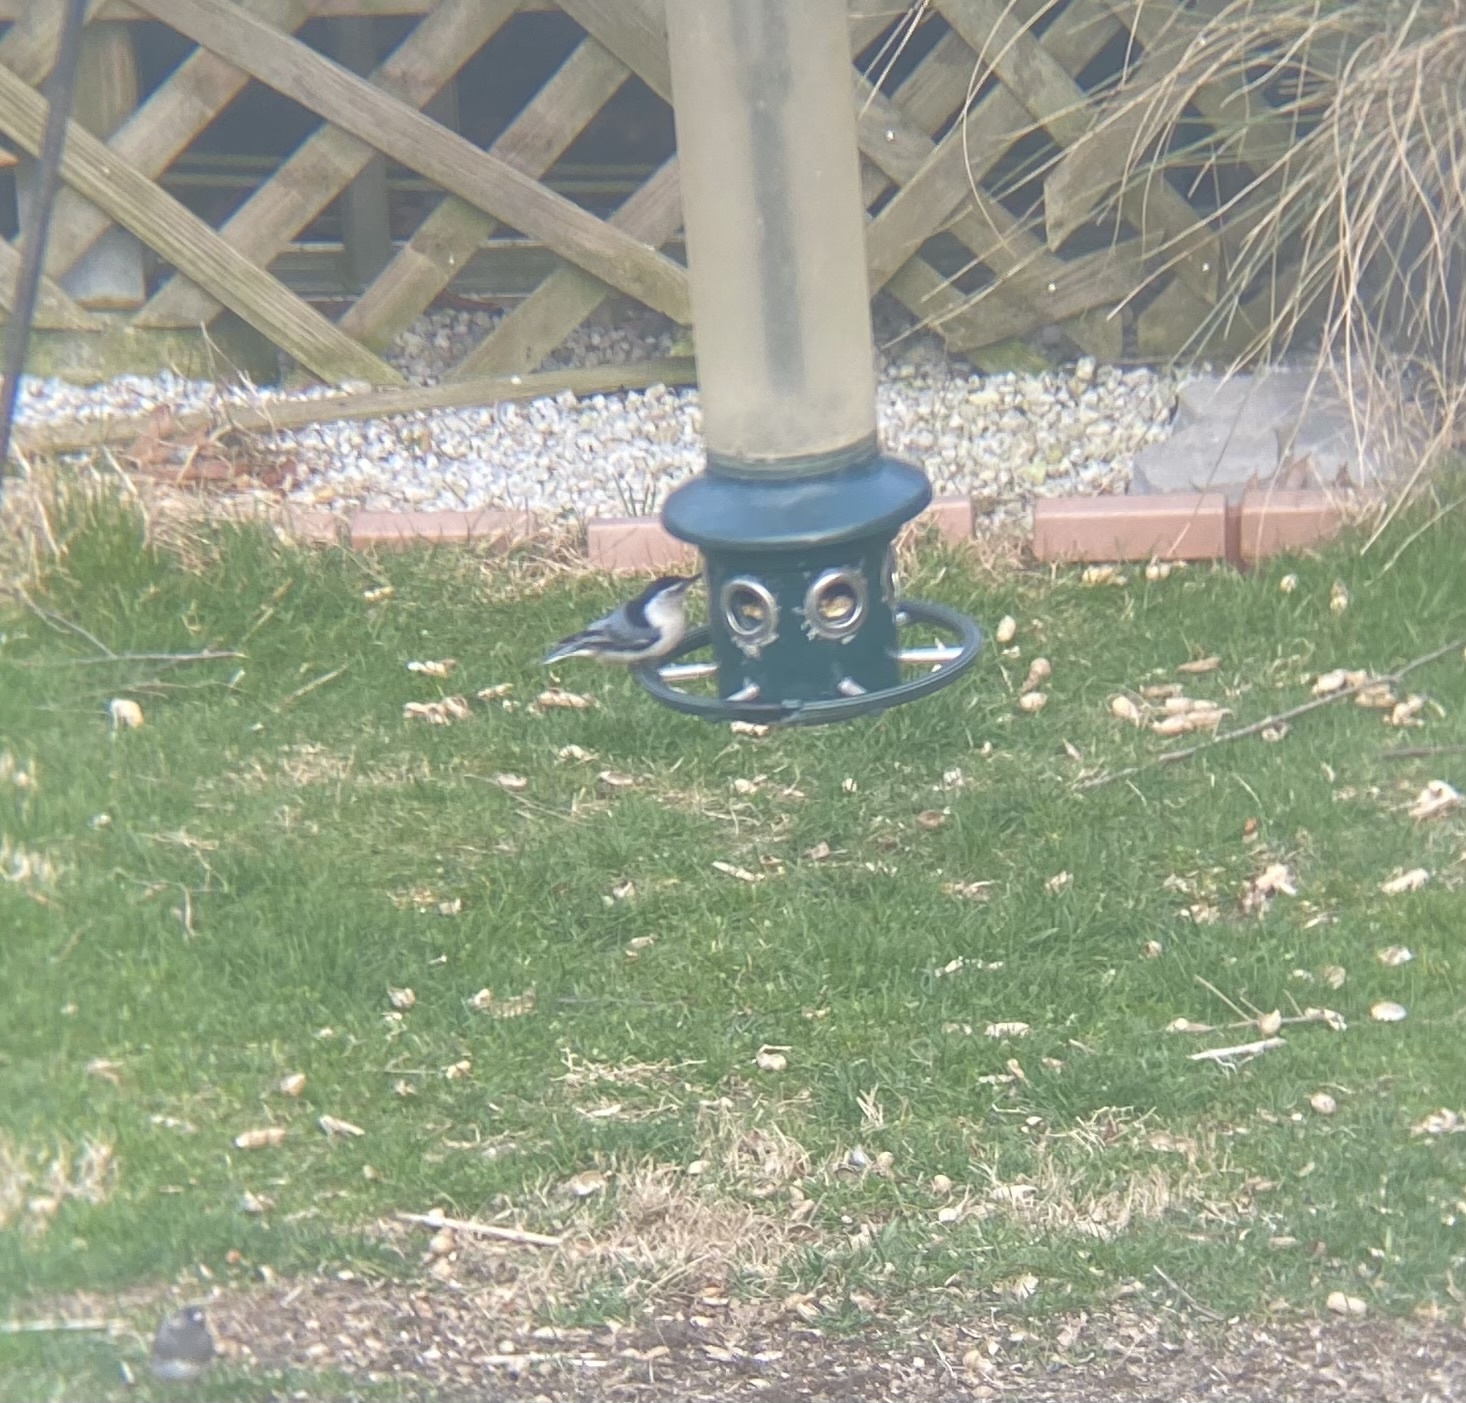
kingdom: Animalia
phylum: Chordata
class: Aves
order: Passeriformes
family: Sittidae
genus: Sitta
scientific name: Sitta carolinensis
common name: White-breasted nuthatch
